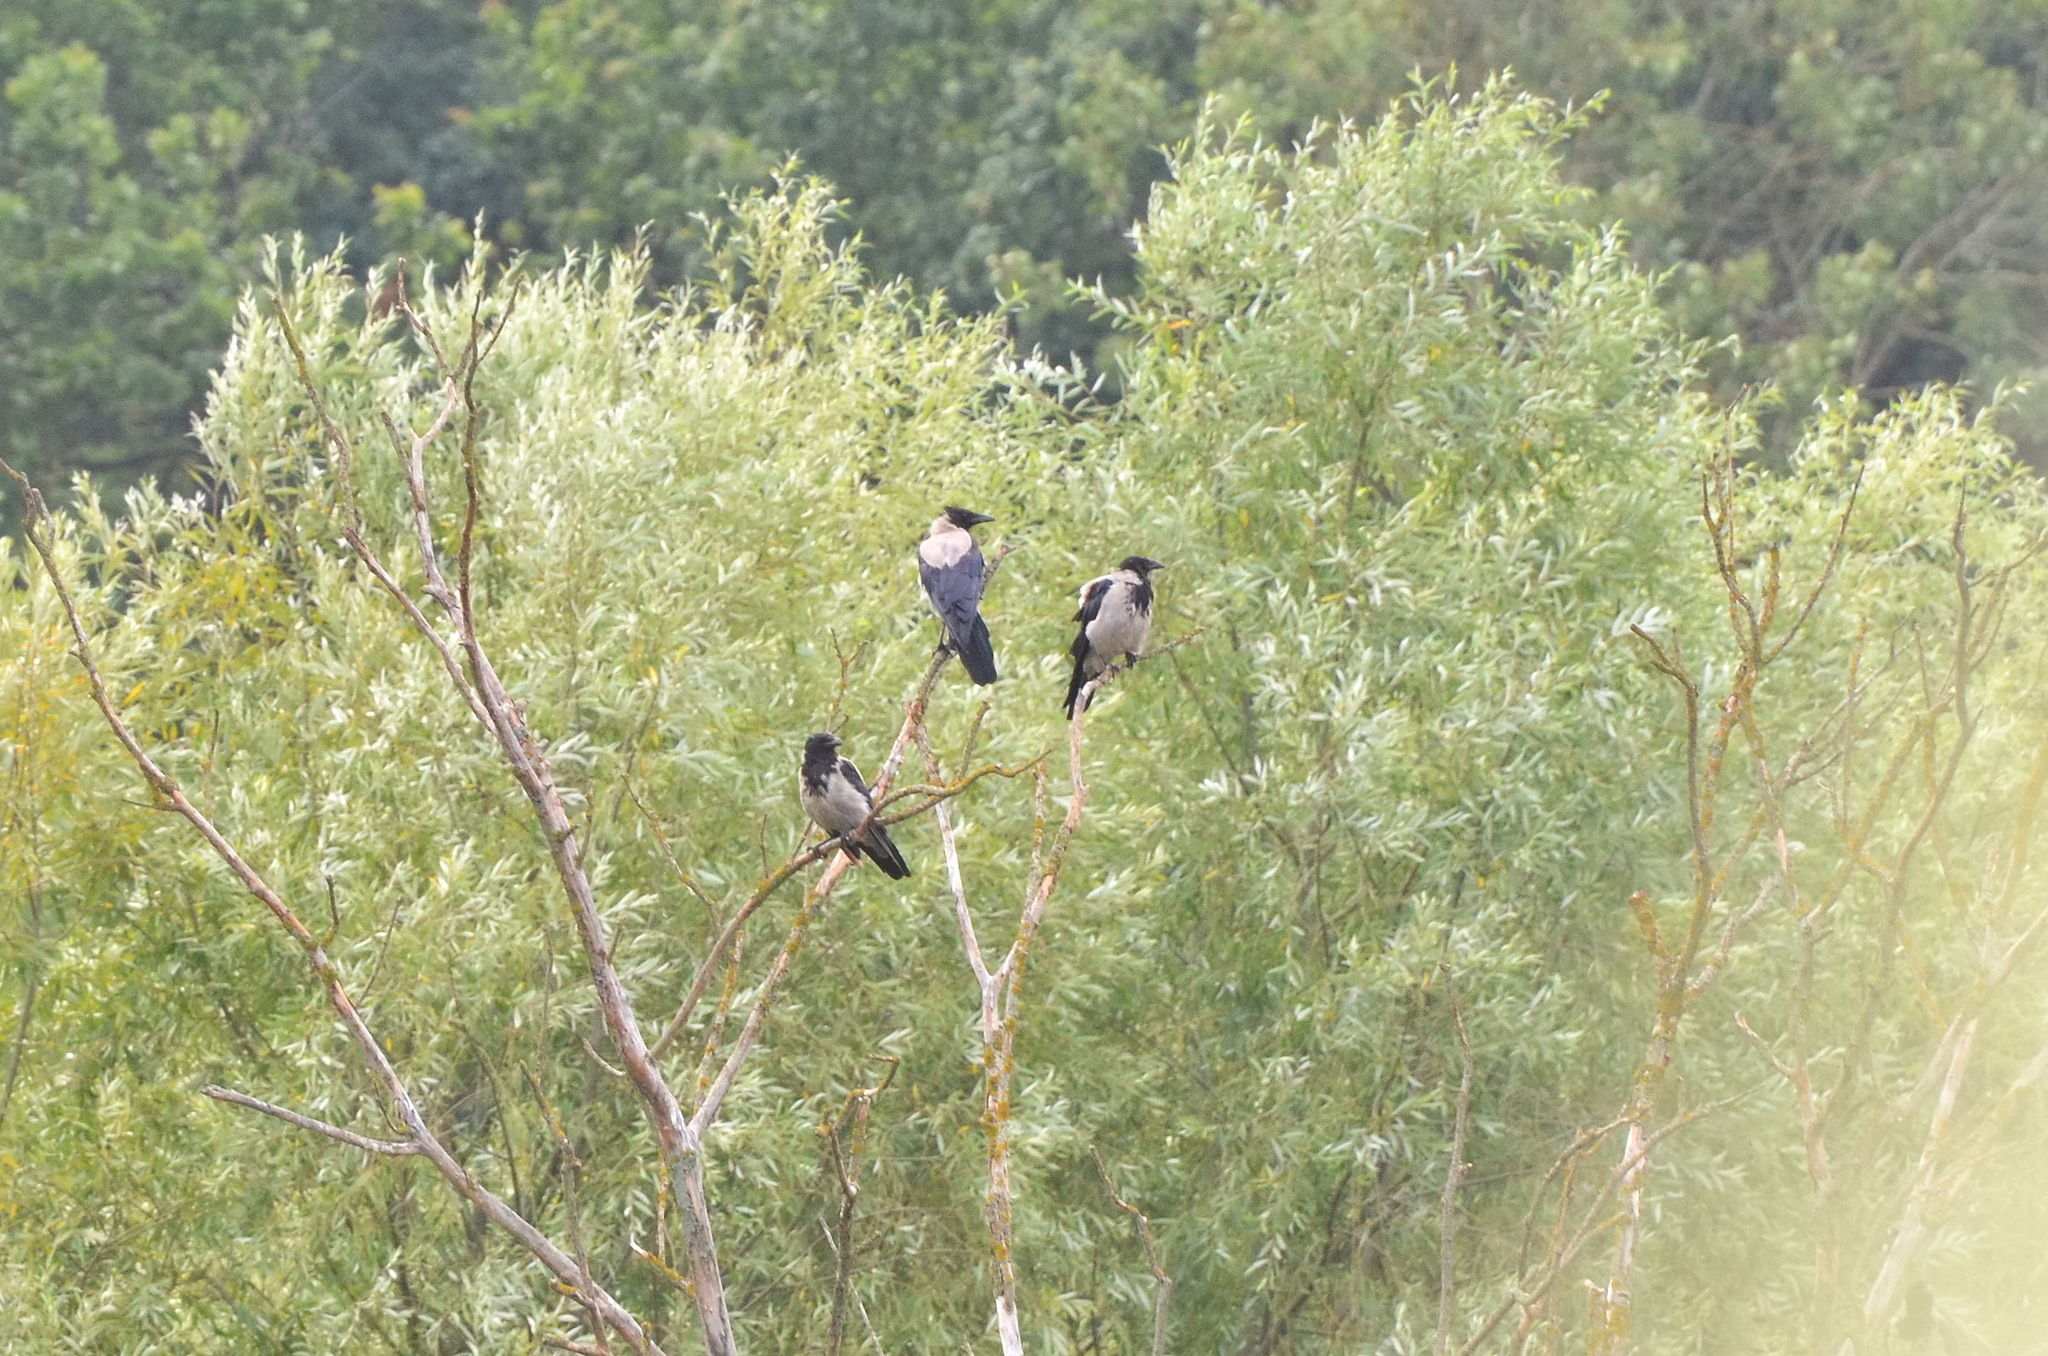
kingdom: Animalia
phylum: Chordata
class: Aves
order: Passeriformes
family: Corvidae
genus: Corvus
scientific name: Corvus cornix
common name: Hooded crow
